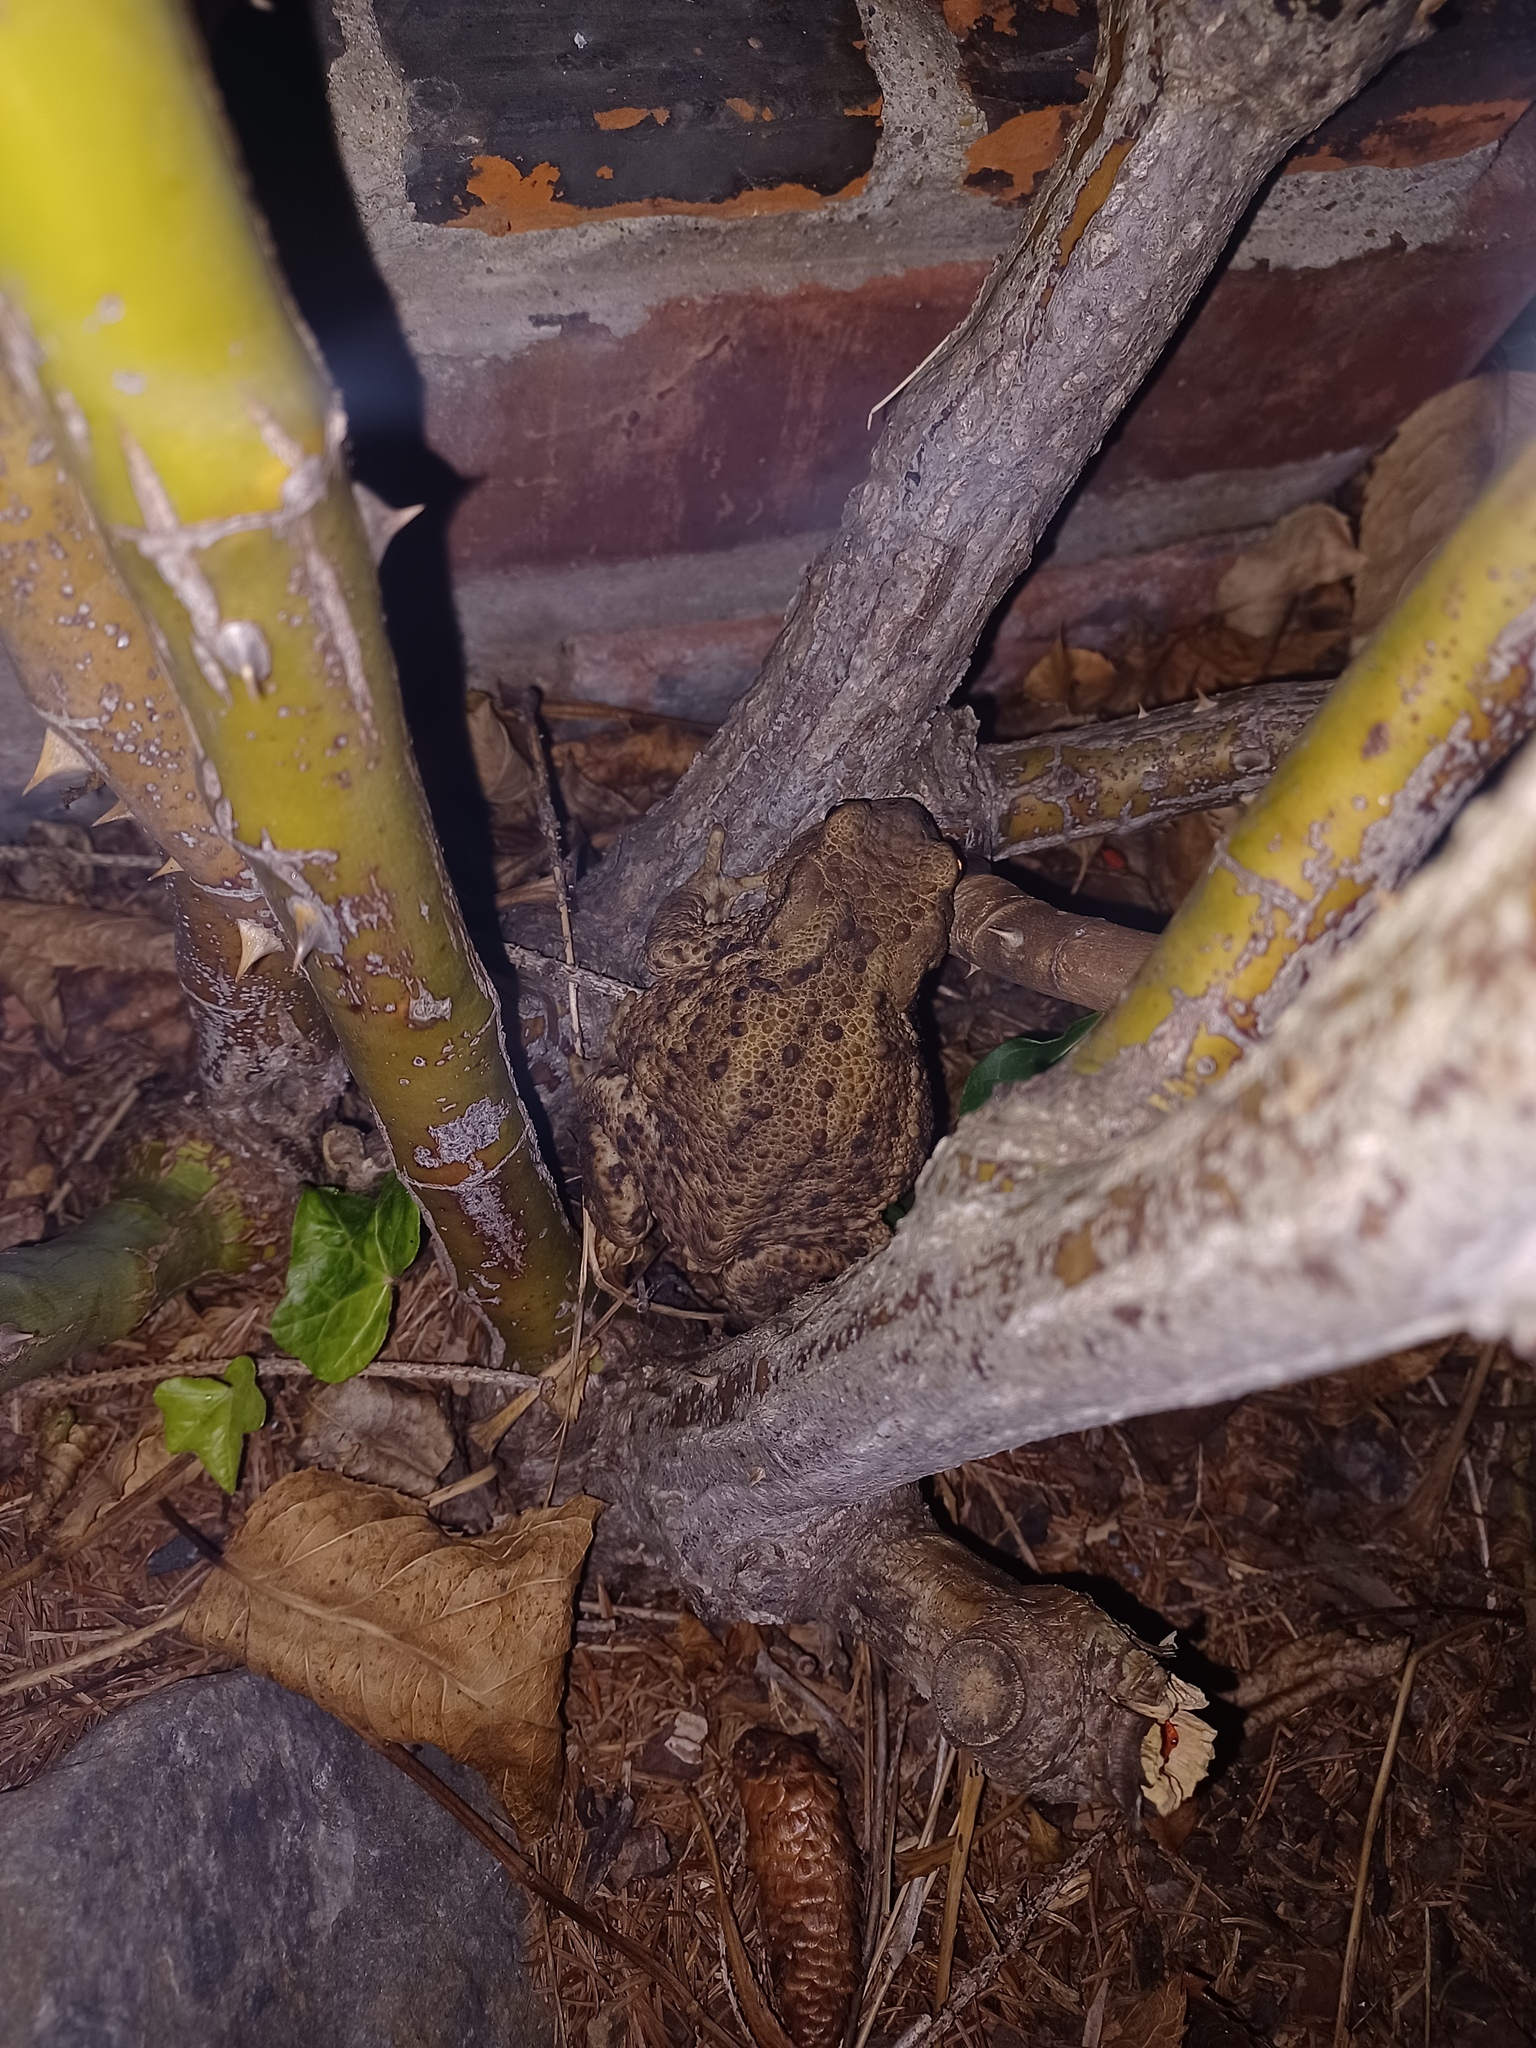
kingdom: Animalia
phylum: Chordata
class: Amphibia
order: Anura
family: Bufonidae
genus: Bufo
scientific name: Bufo bufo
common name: Common toad
